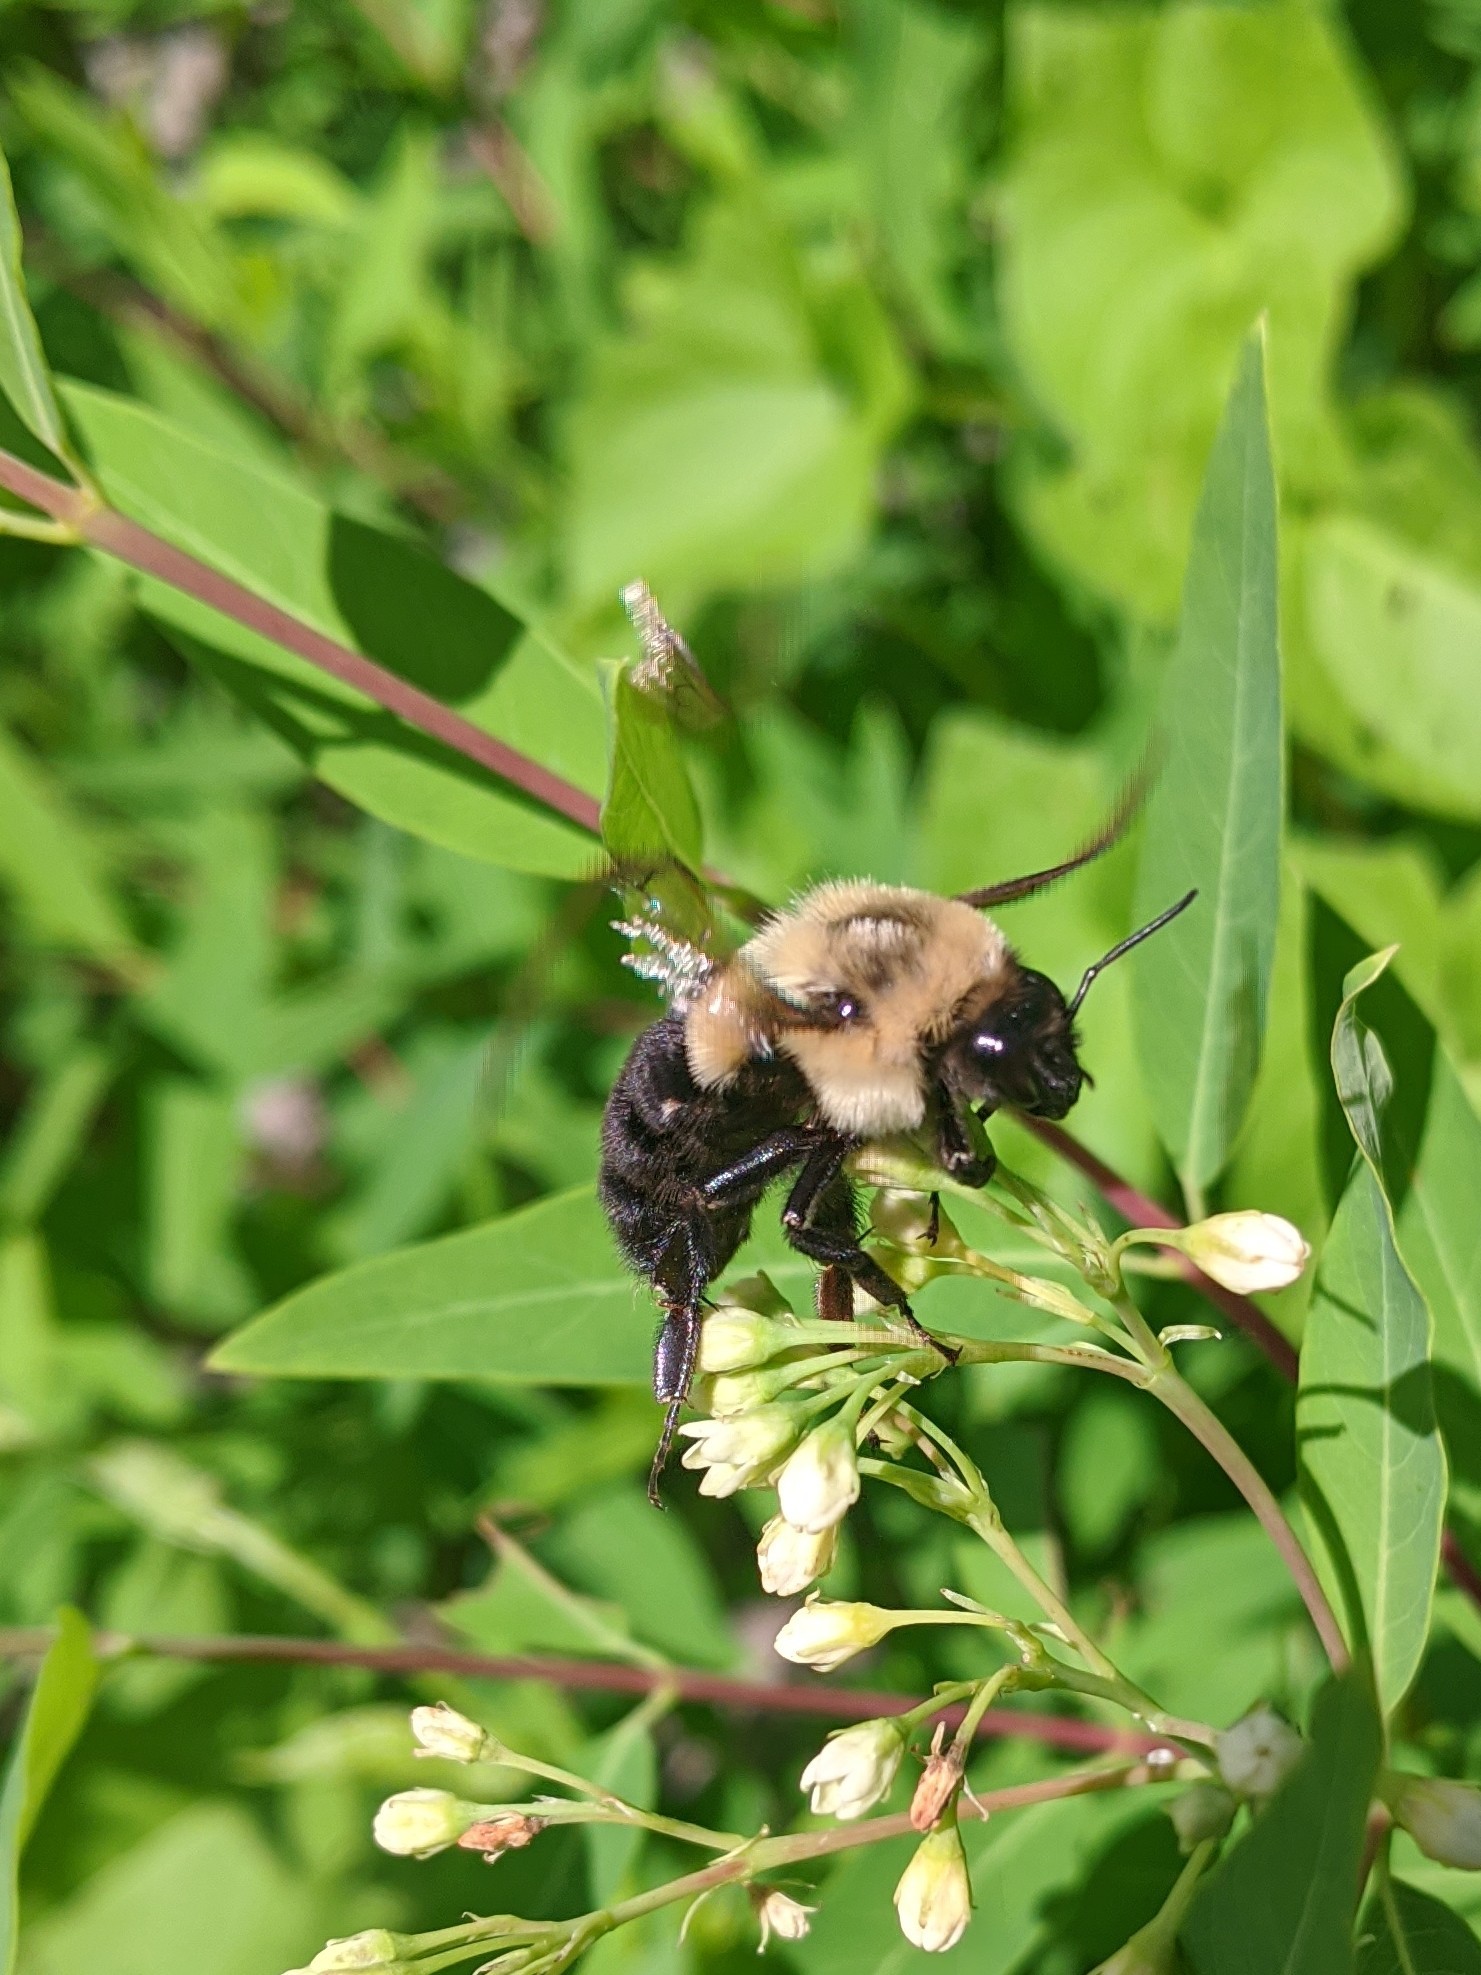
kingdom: Animalia
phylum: Arthropoda
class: Insecta
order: Hymenoptera
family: Apidae
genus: Bombus
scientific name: Bombus impatiens
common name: Common eastern bumble bee
